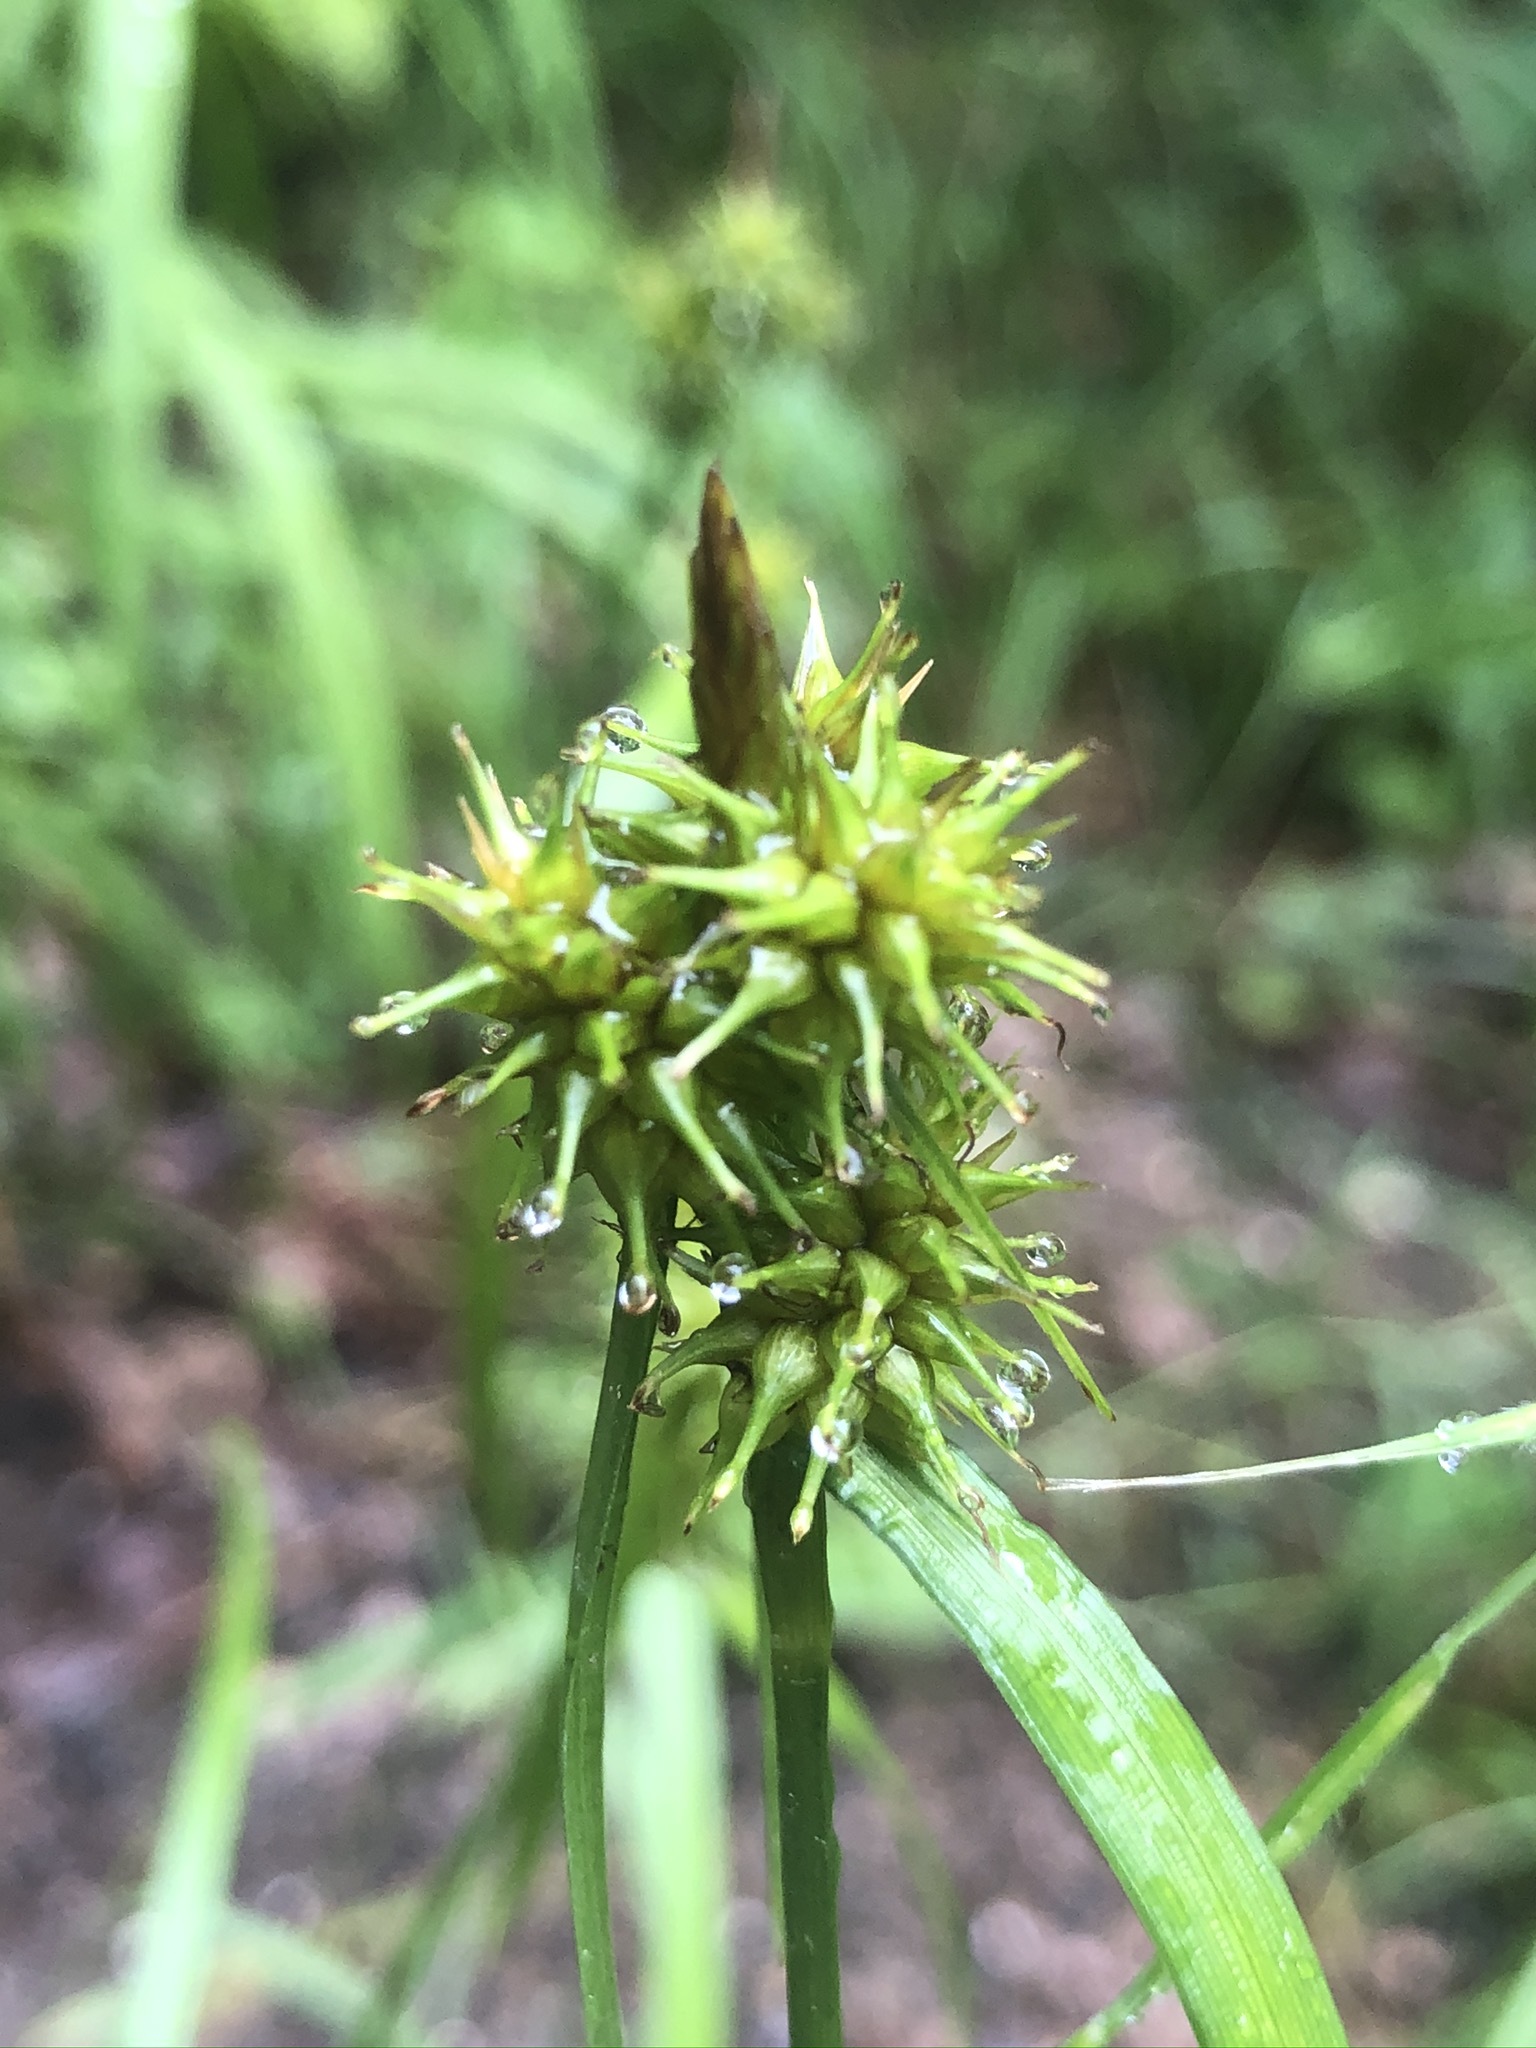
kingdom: Plantae
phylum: Tracheophyta
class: Liliopsida
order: Poales
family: Cyperaceae
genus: Carex
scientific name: Carex flava
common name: Large yellow-sedge
